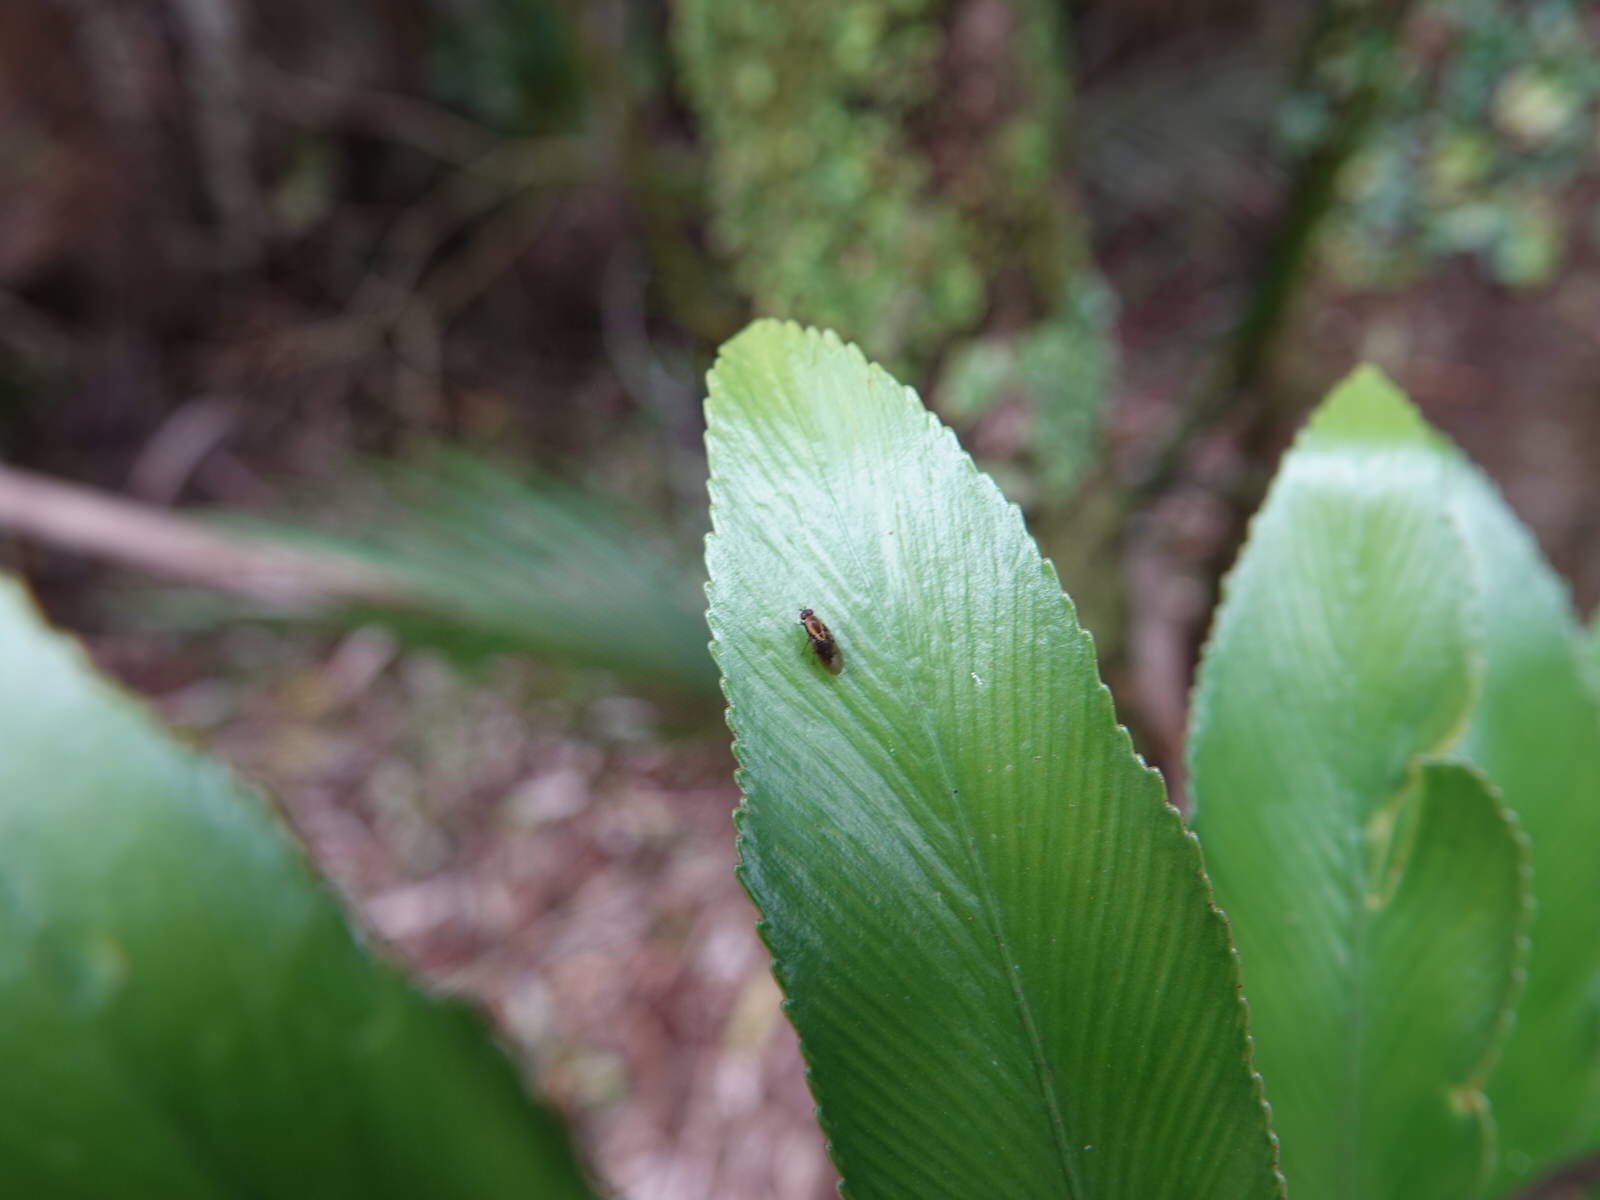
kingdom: Animalia
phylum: Arthropoda
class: Insecta
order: Diptera
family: Heleomyzidae
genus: Allophylopsis
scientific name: Allophylopsis scutellata
